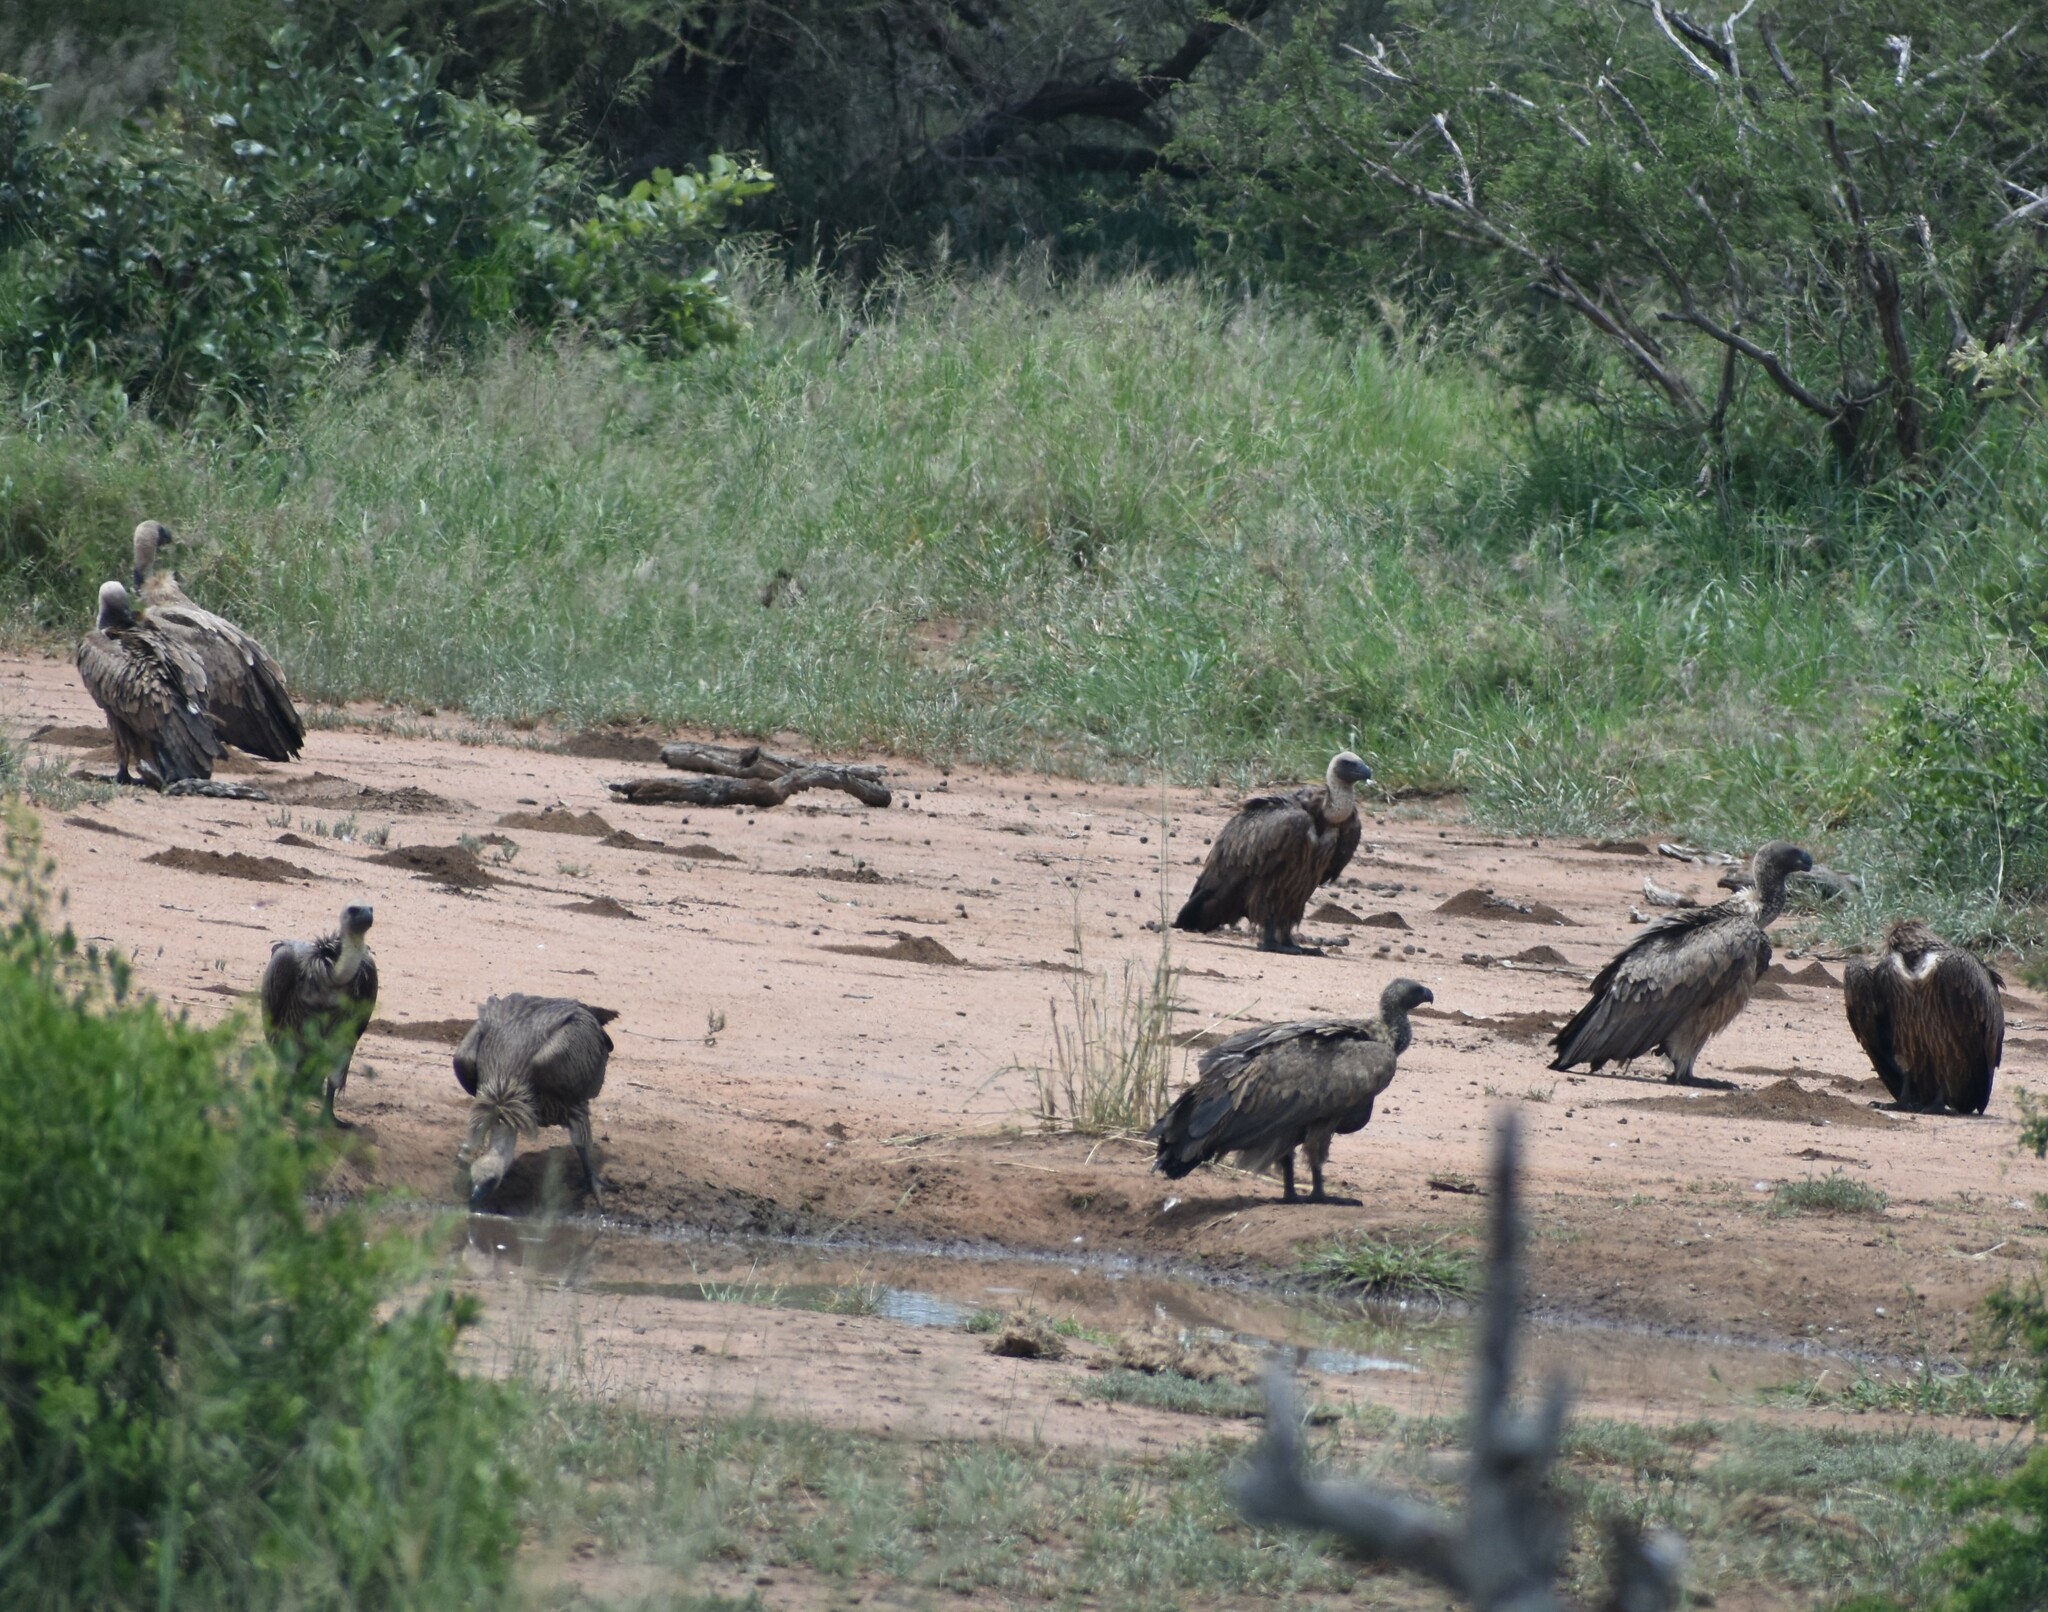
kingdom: Animalia
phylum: Chordata
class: Aves
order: Accipitriformes
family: Accipitridae
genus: Gyps
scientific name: Gyps africanus
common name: White-backed vulture
